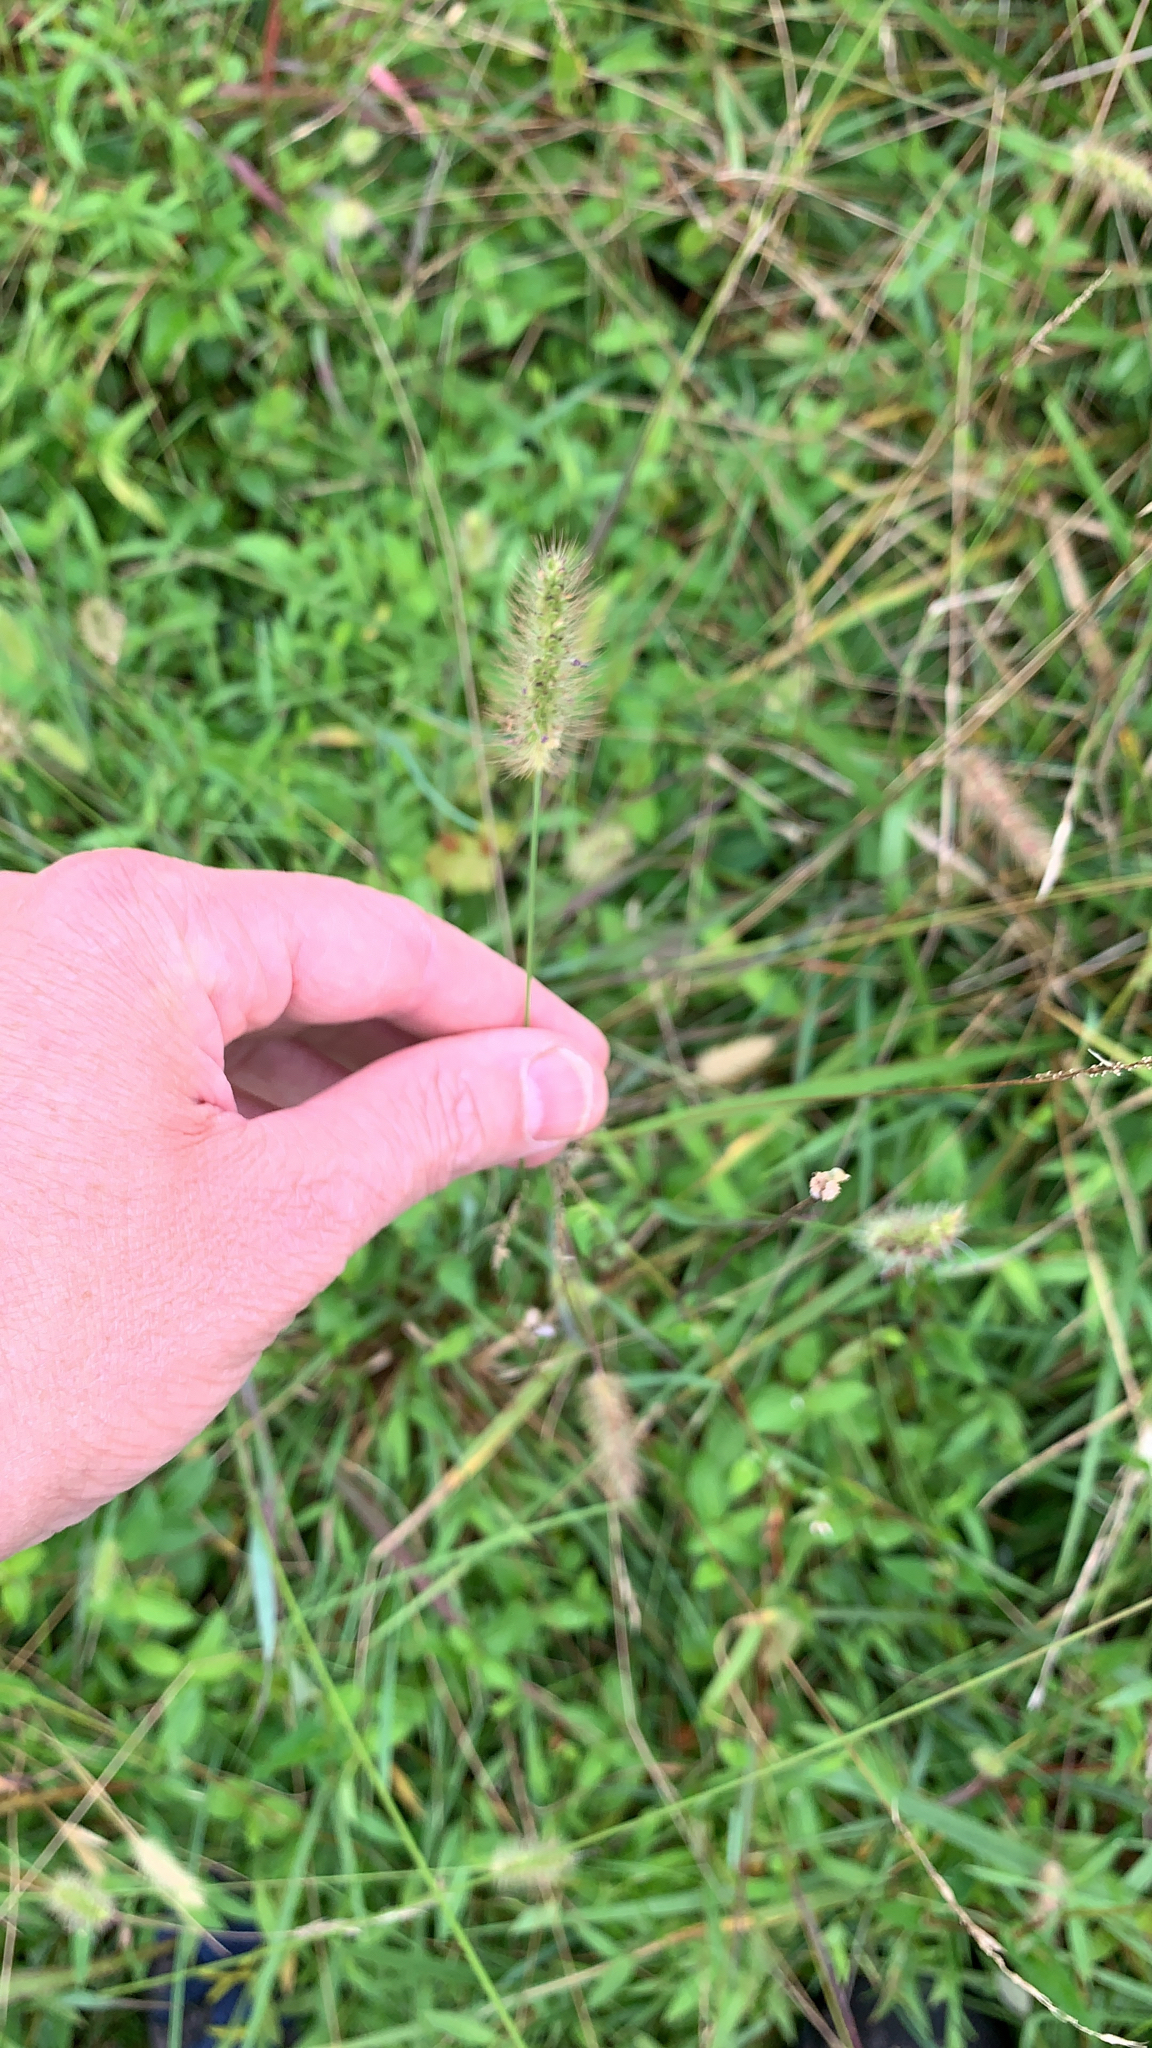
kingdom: Plantae
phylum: Tracheophyta
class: Liliopsida
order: Poales
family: Poaceae
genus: Setaria
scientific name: Setaria parviflora
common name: Knotroot bristle-grass
